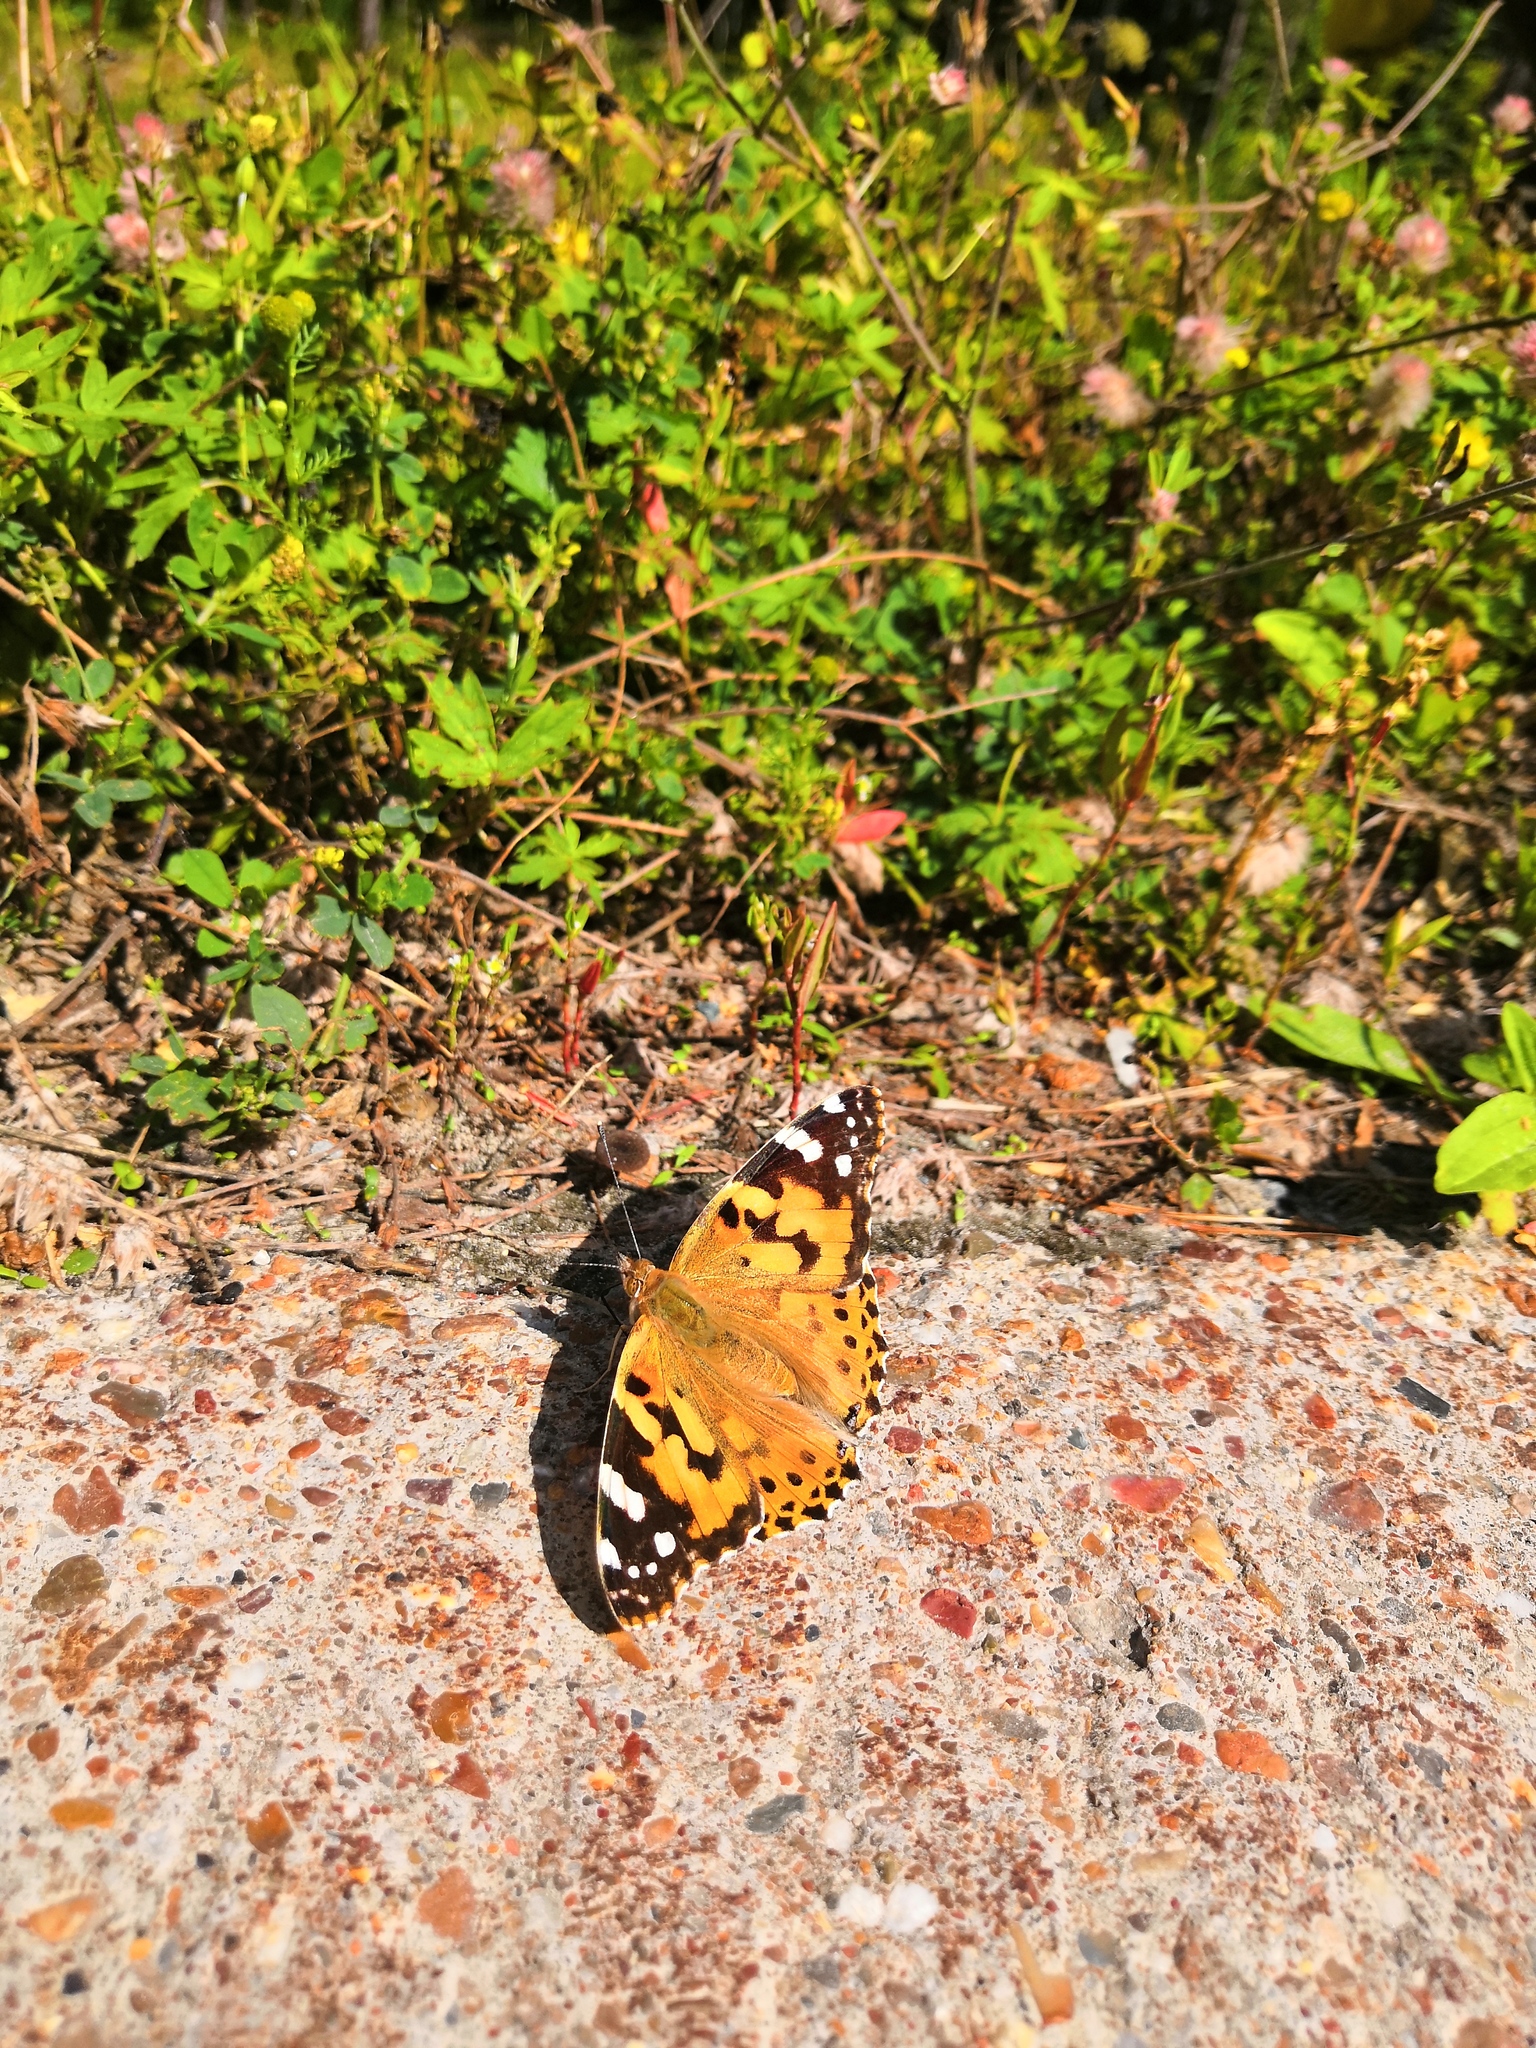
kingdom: Animalia
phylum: Arthropoda
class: Insecta
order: Lepidoptera
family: Nymphalidae
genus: Vanessa
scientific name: Vanessa cardui
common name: Painted lady
